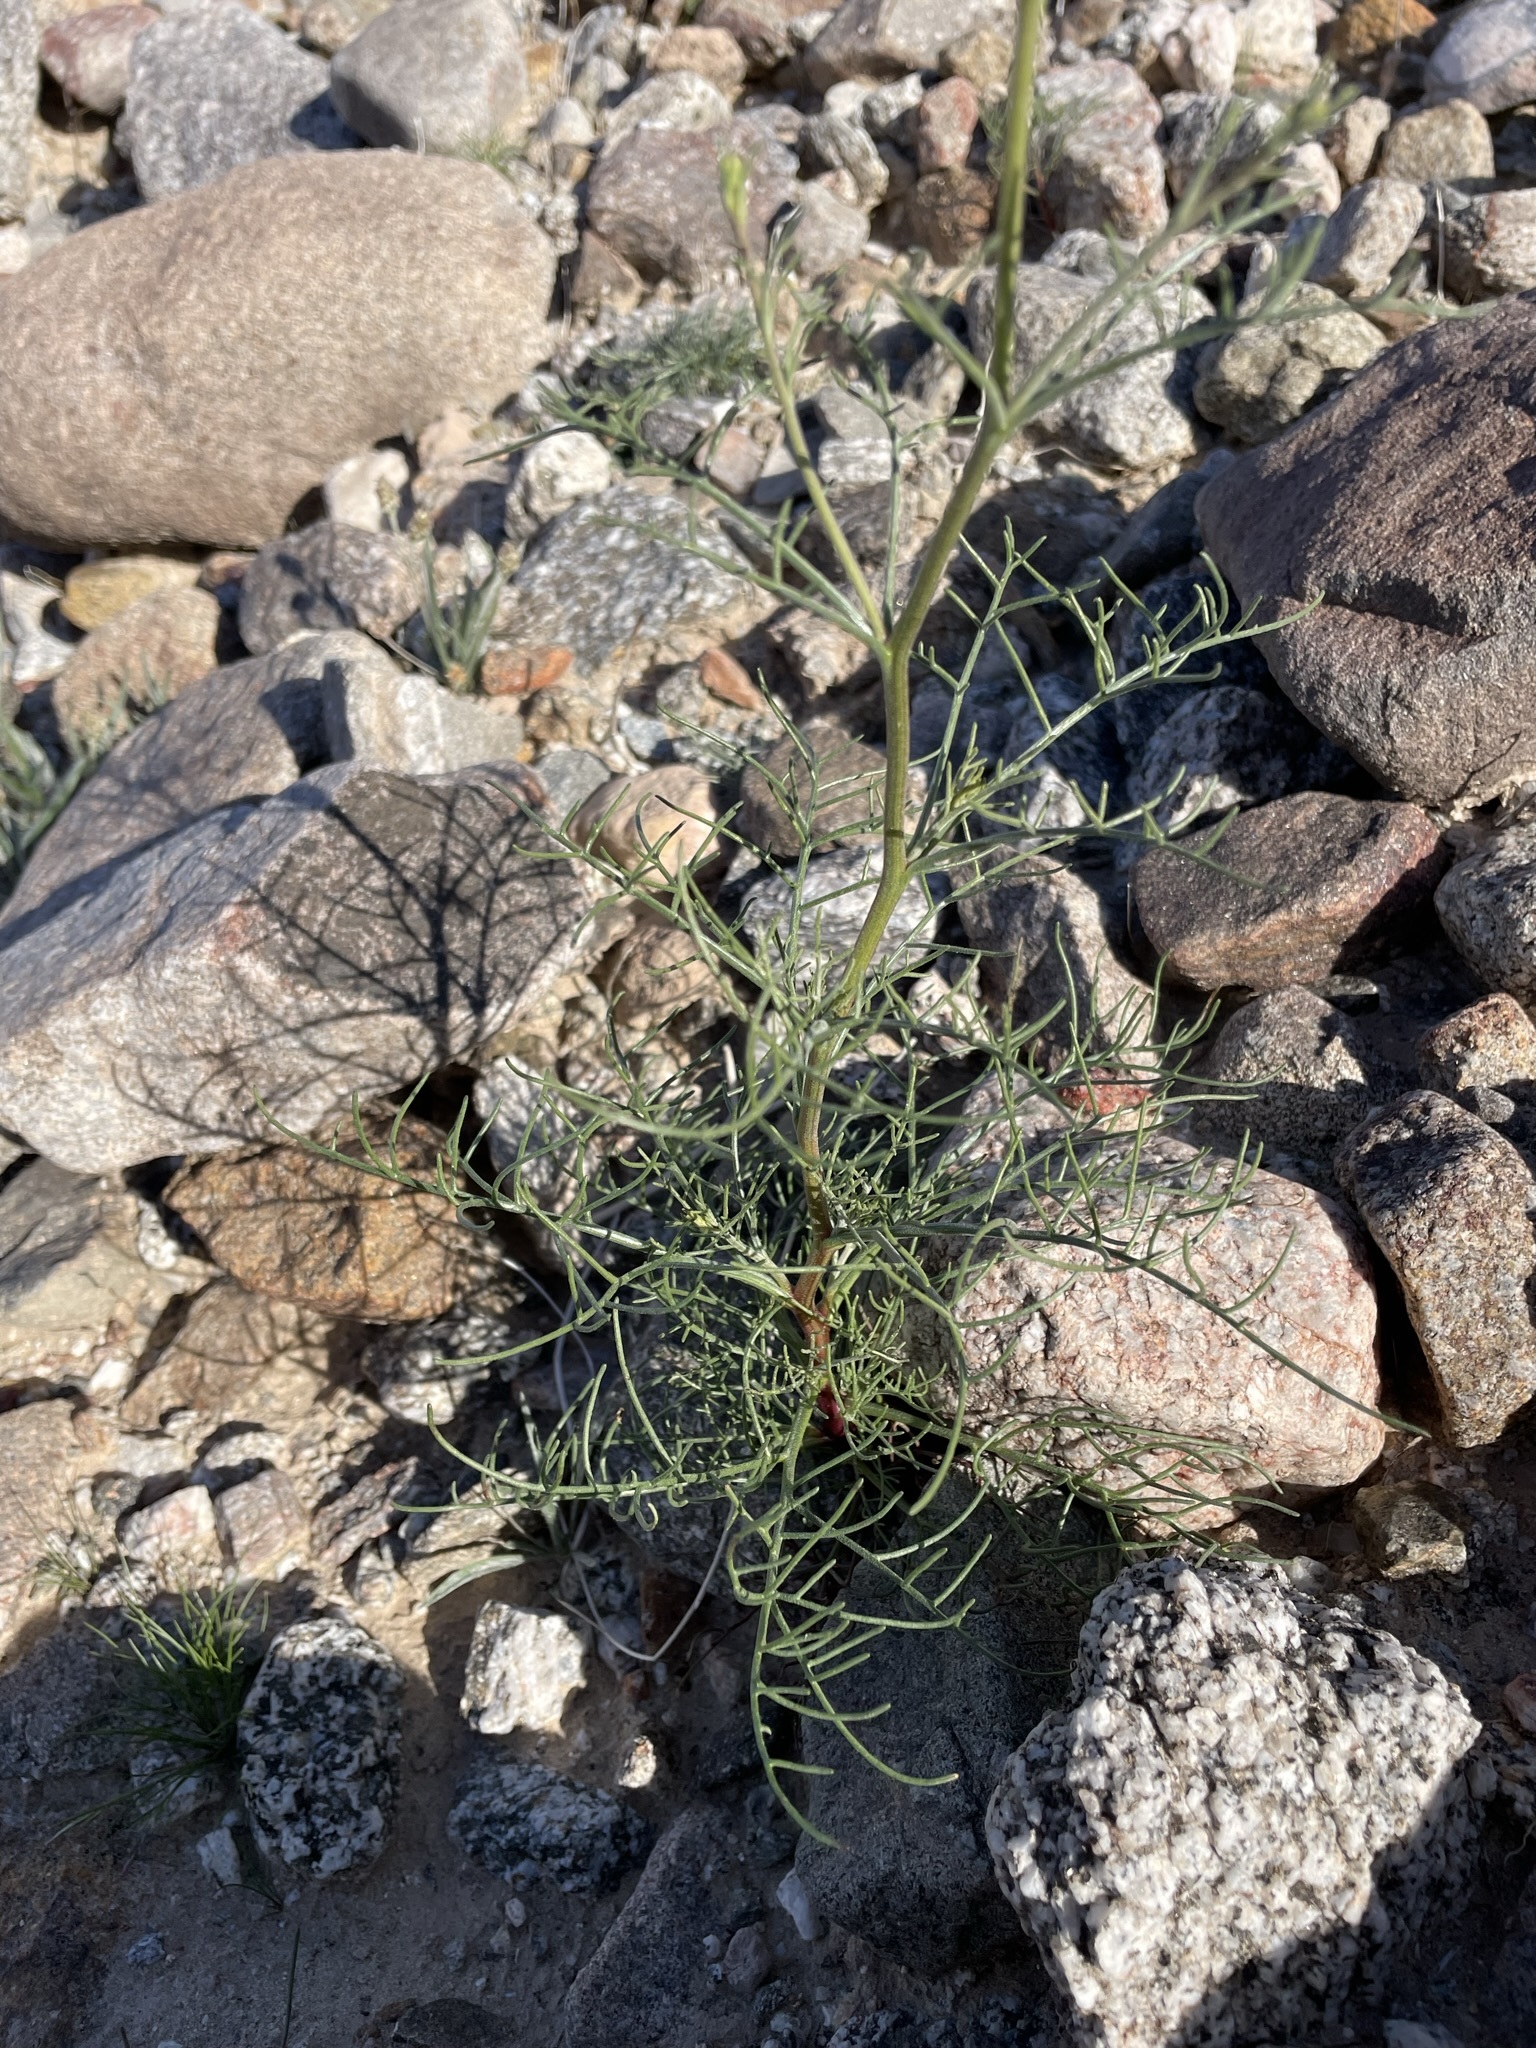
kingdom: Plantae
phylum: Tracheophyta
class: Magnoliopsida
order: Asterales
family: Asteraceae
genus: Chaenactis
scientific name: Chaenactis carphoclinia
